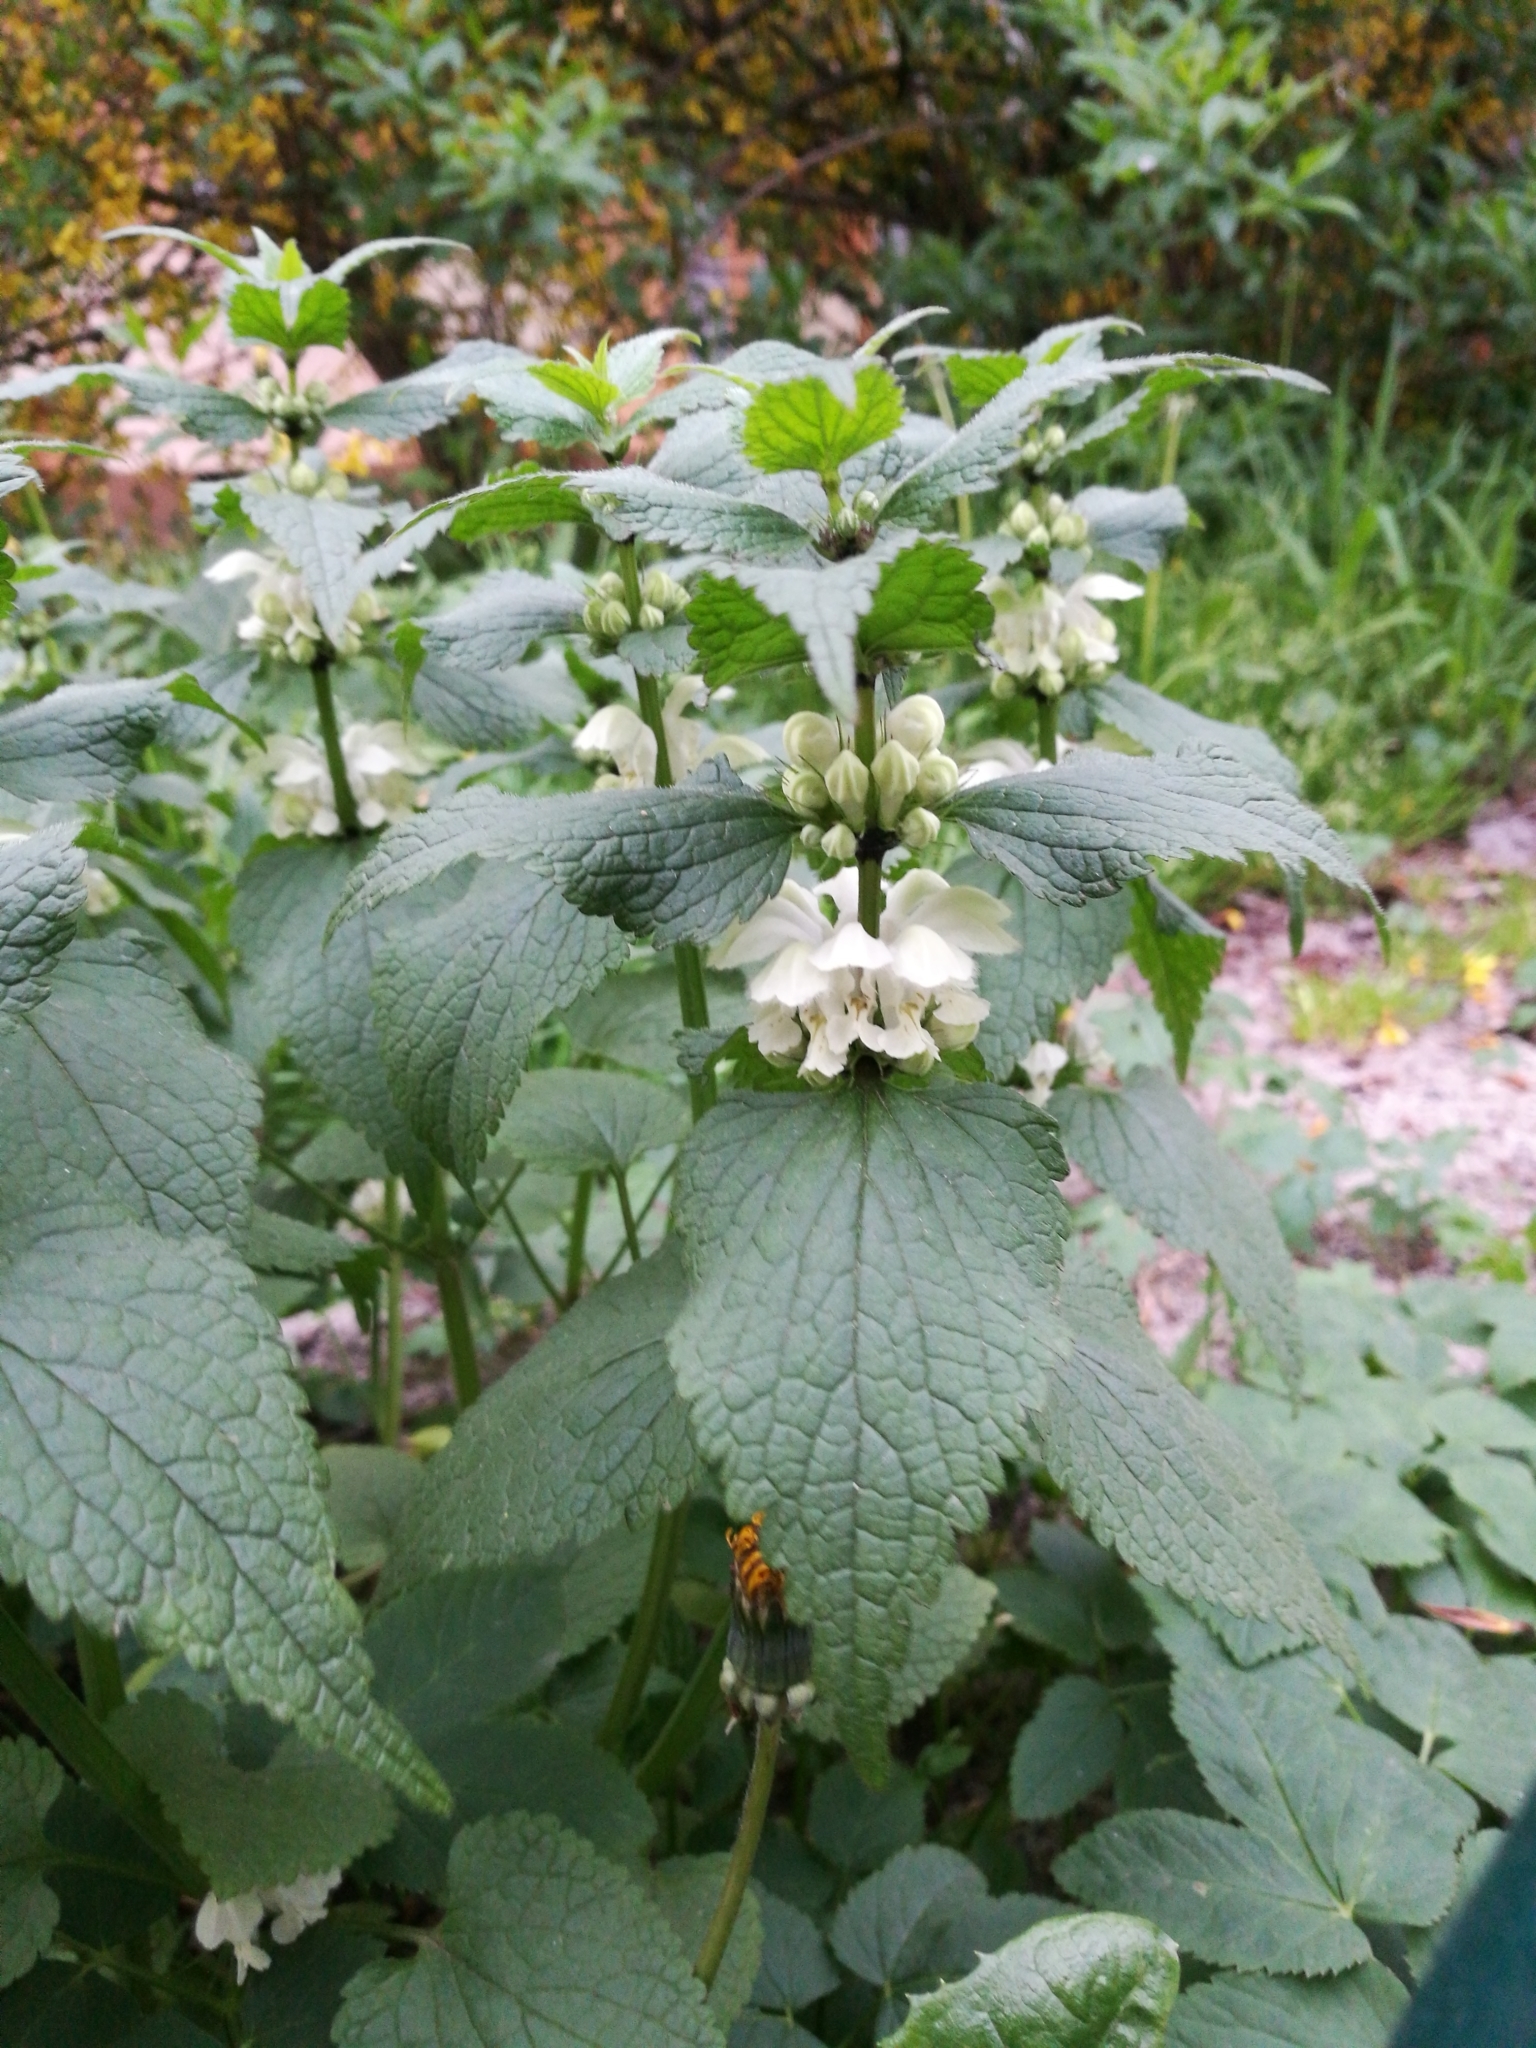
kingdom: Plantae
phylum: Tracheophyta
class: Magnoliopsida
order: Lamiales
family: Lamiaceae
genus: Lamium
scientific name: Lamium album
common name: White dead-nettle
